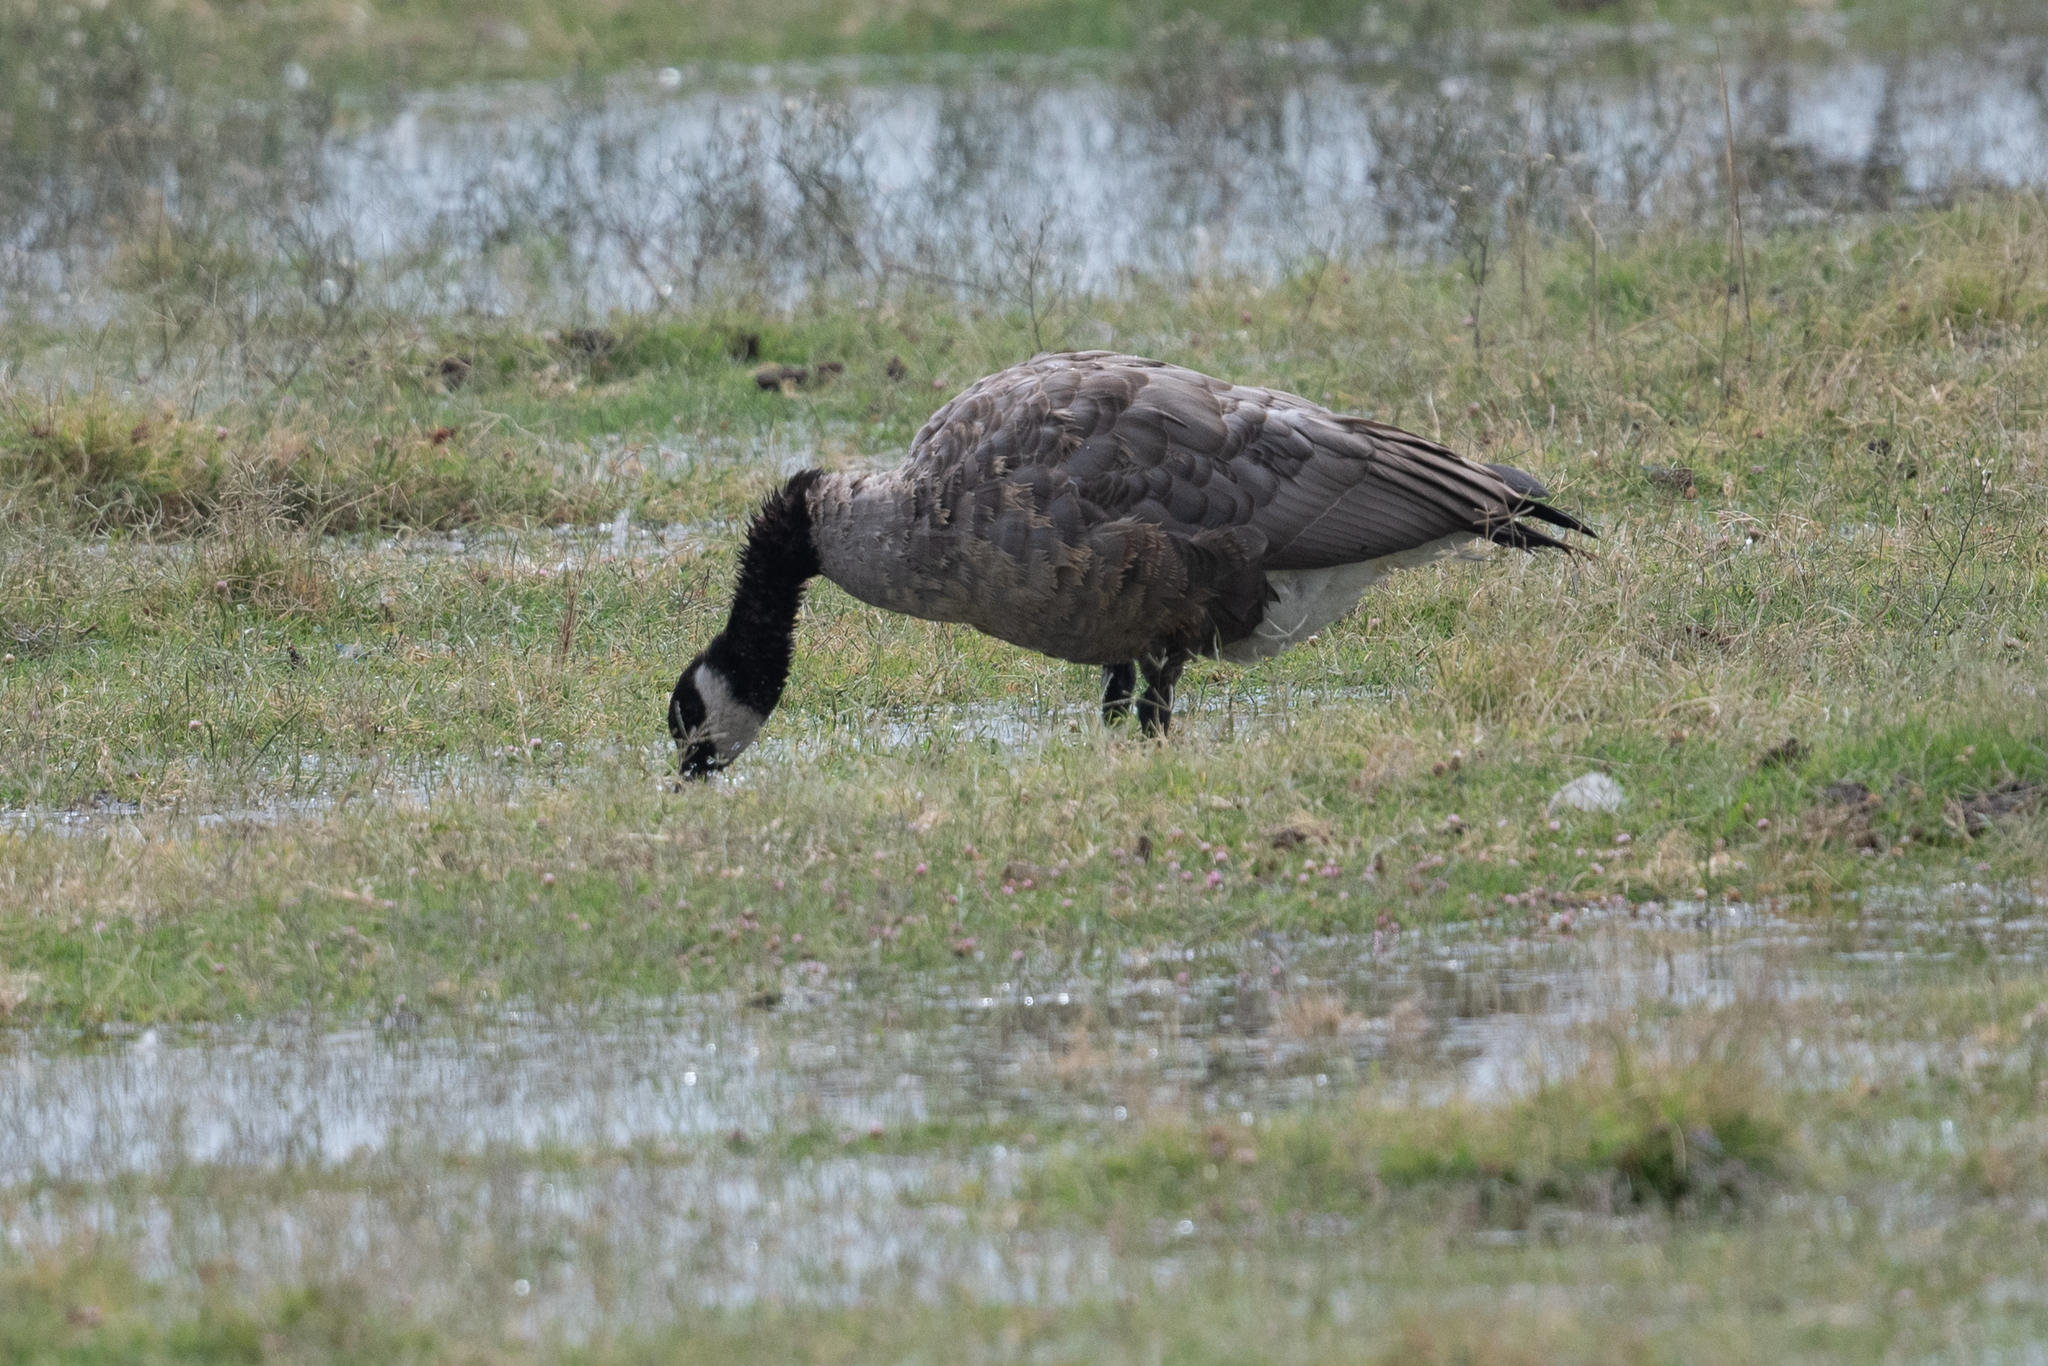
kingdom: Animalia
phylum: Chordata
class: Aves
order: Anseriformes
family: Anatidae
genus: Branta
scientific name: Branta canadensis
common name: Canada goose
